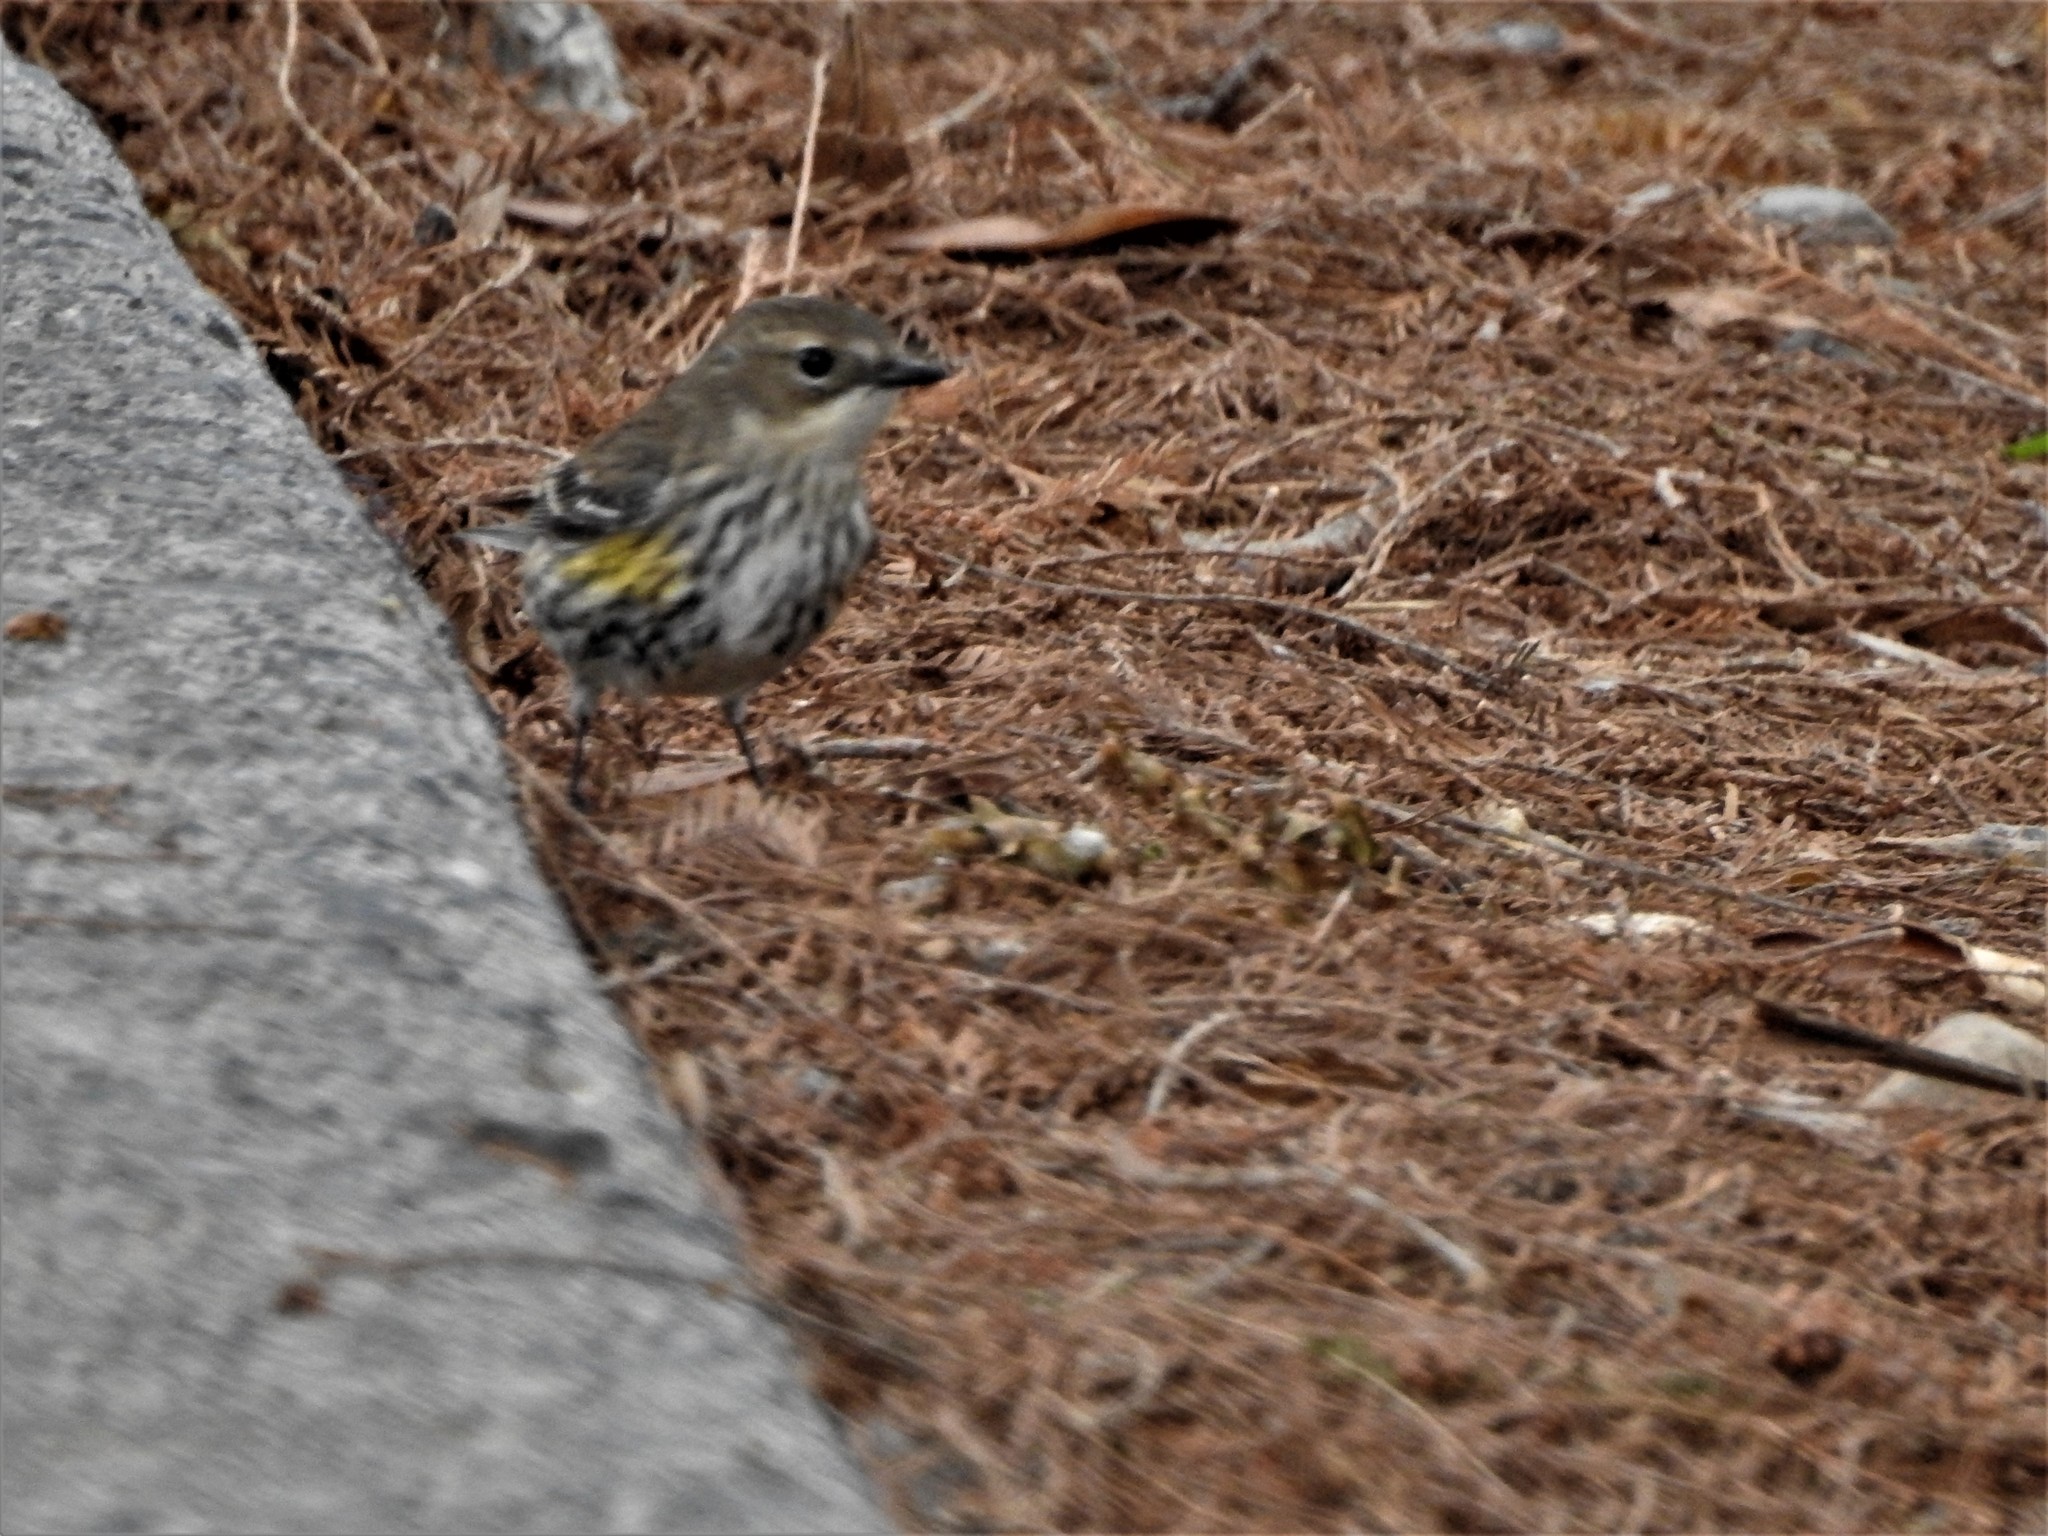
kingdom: Animalia
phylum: Chordata
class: Aves
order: Passeriformes
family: Parulidae
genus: Setophaga
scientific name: Setophaga coronata
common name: Myrtle warbler
